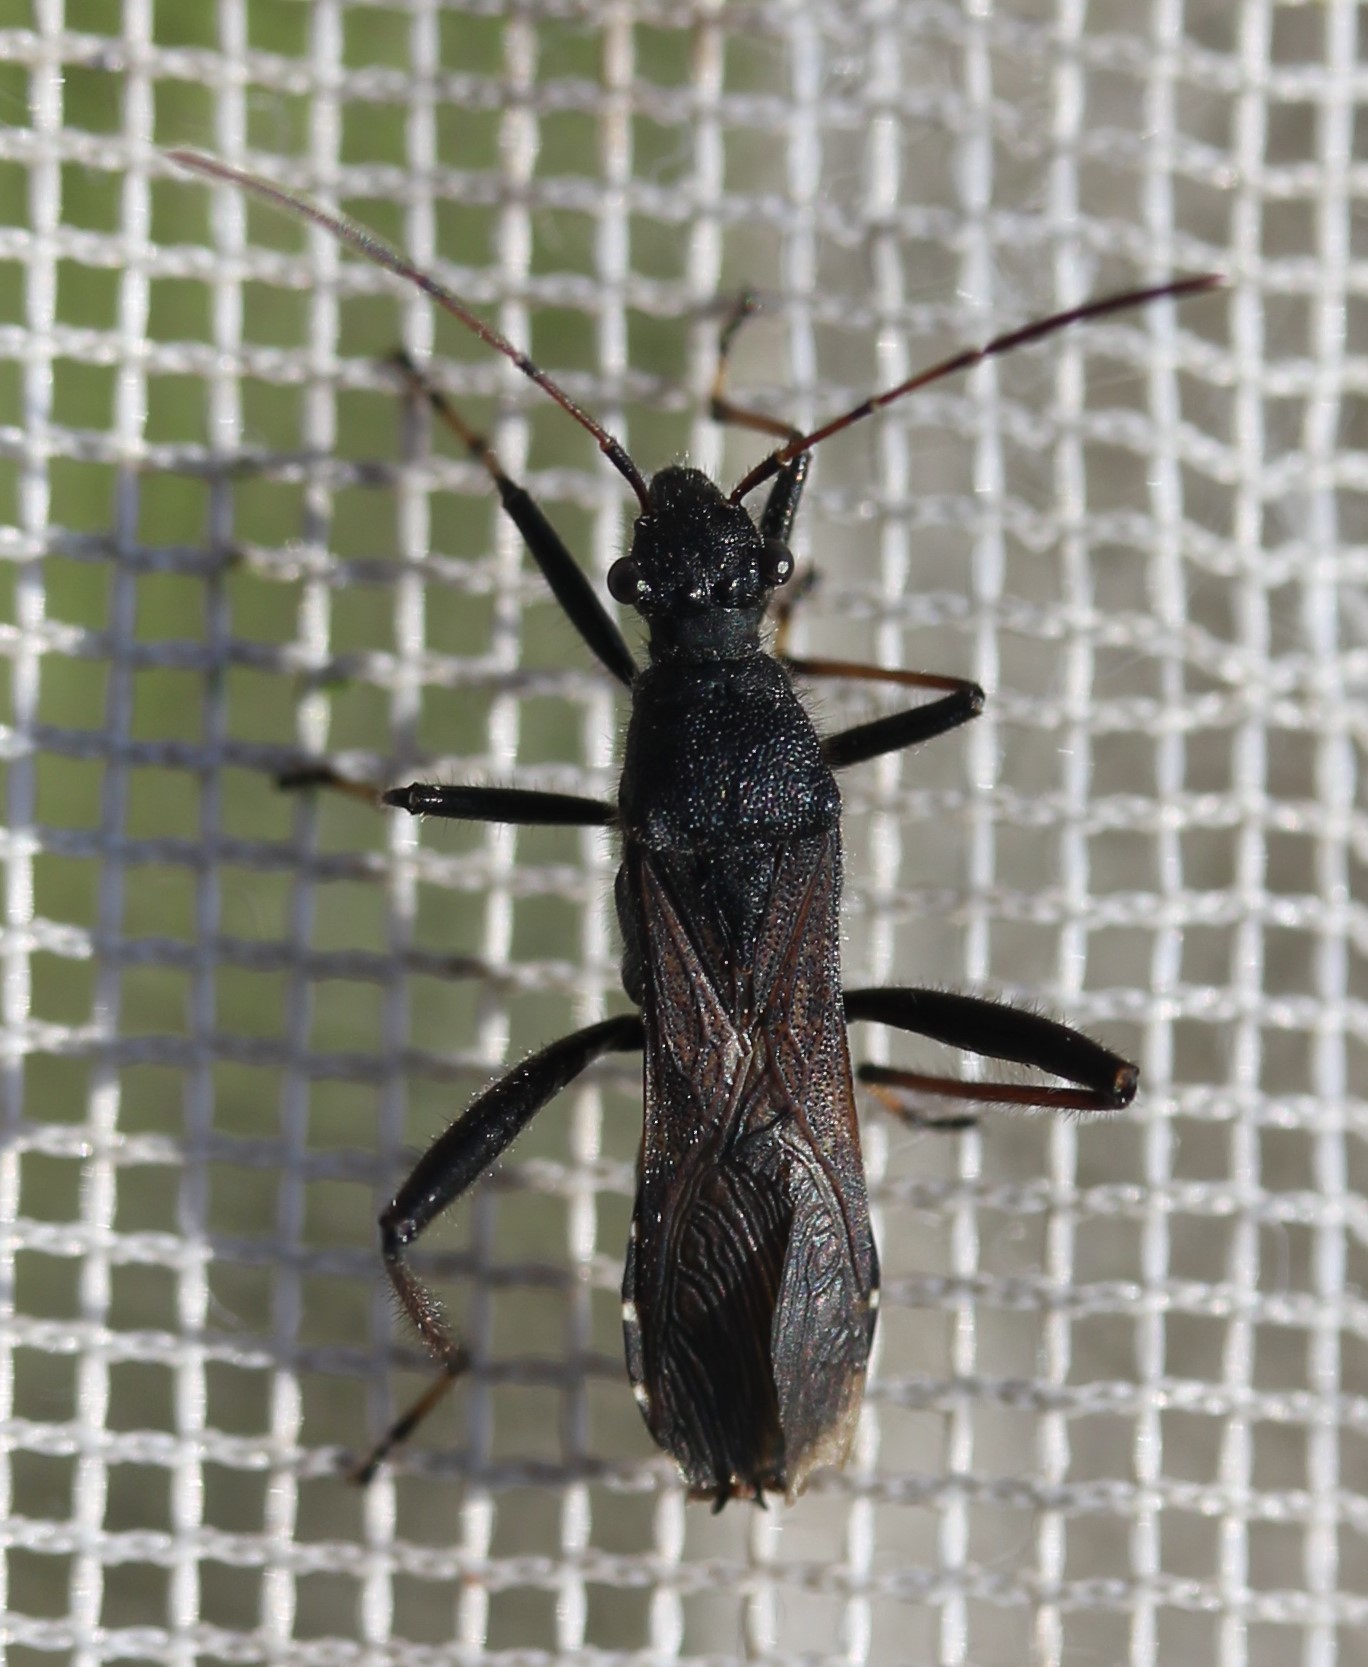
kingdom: Animalia
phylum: Arthropoda
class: Insecta
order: Hemiptera
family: Alydidae
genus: Alydus
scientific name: Alydus eurinus
